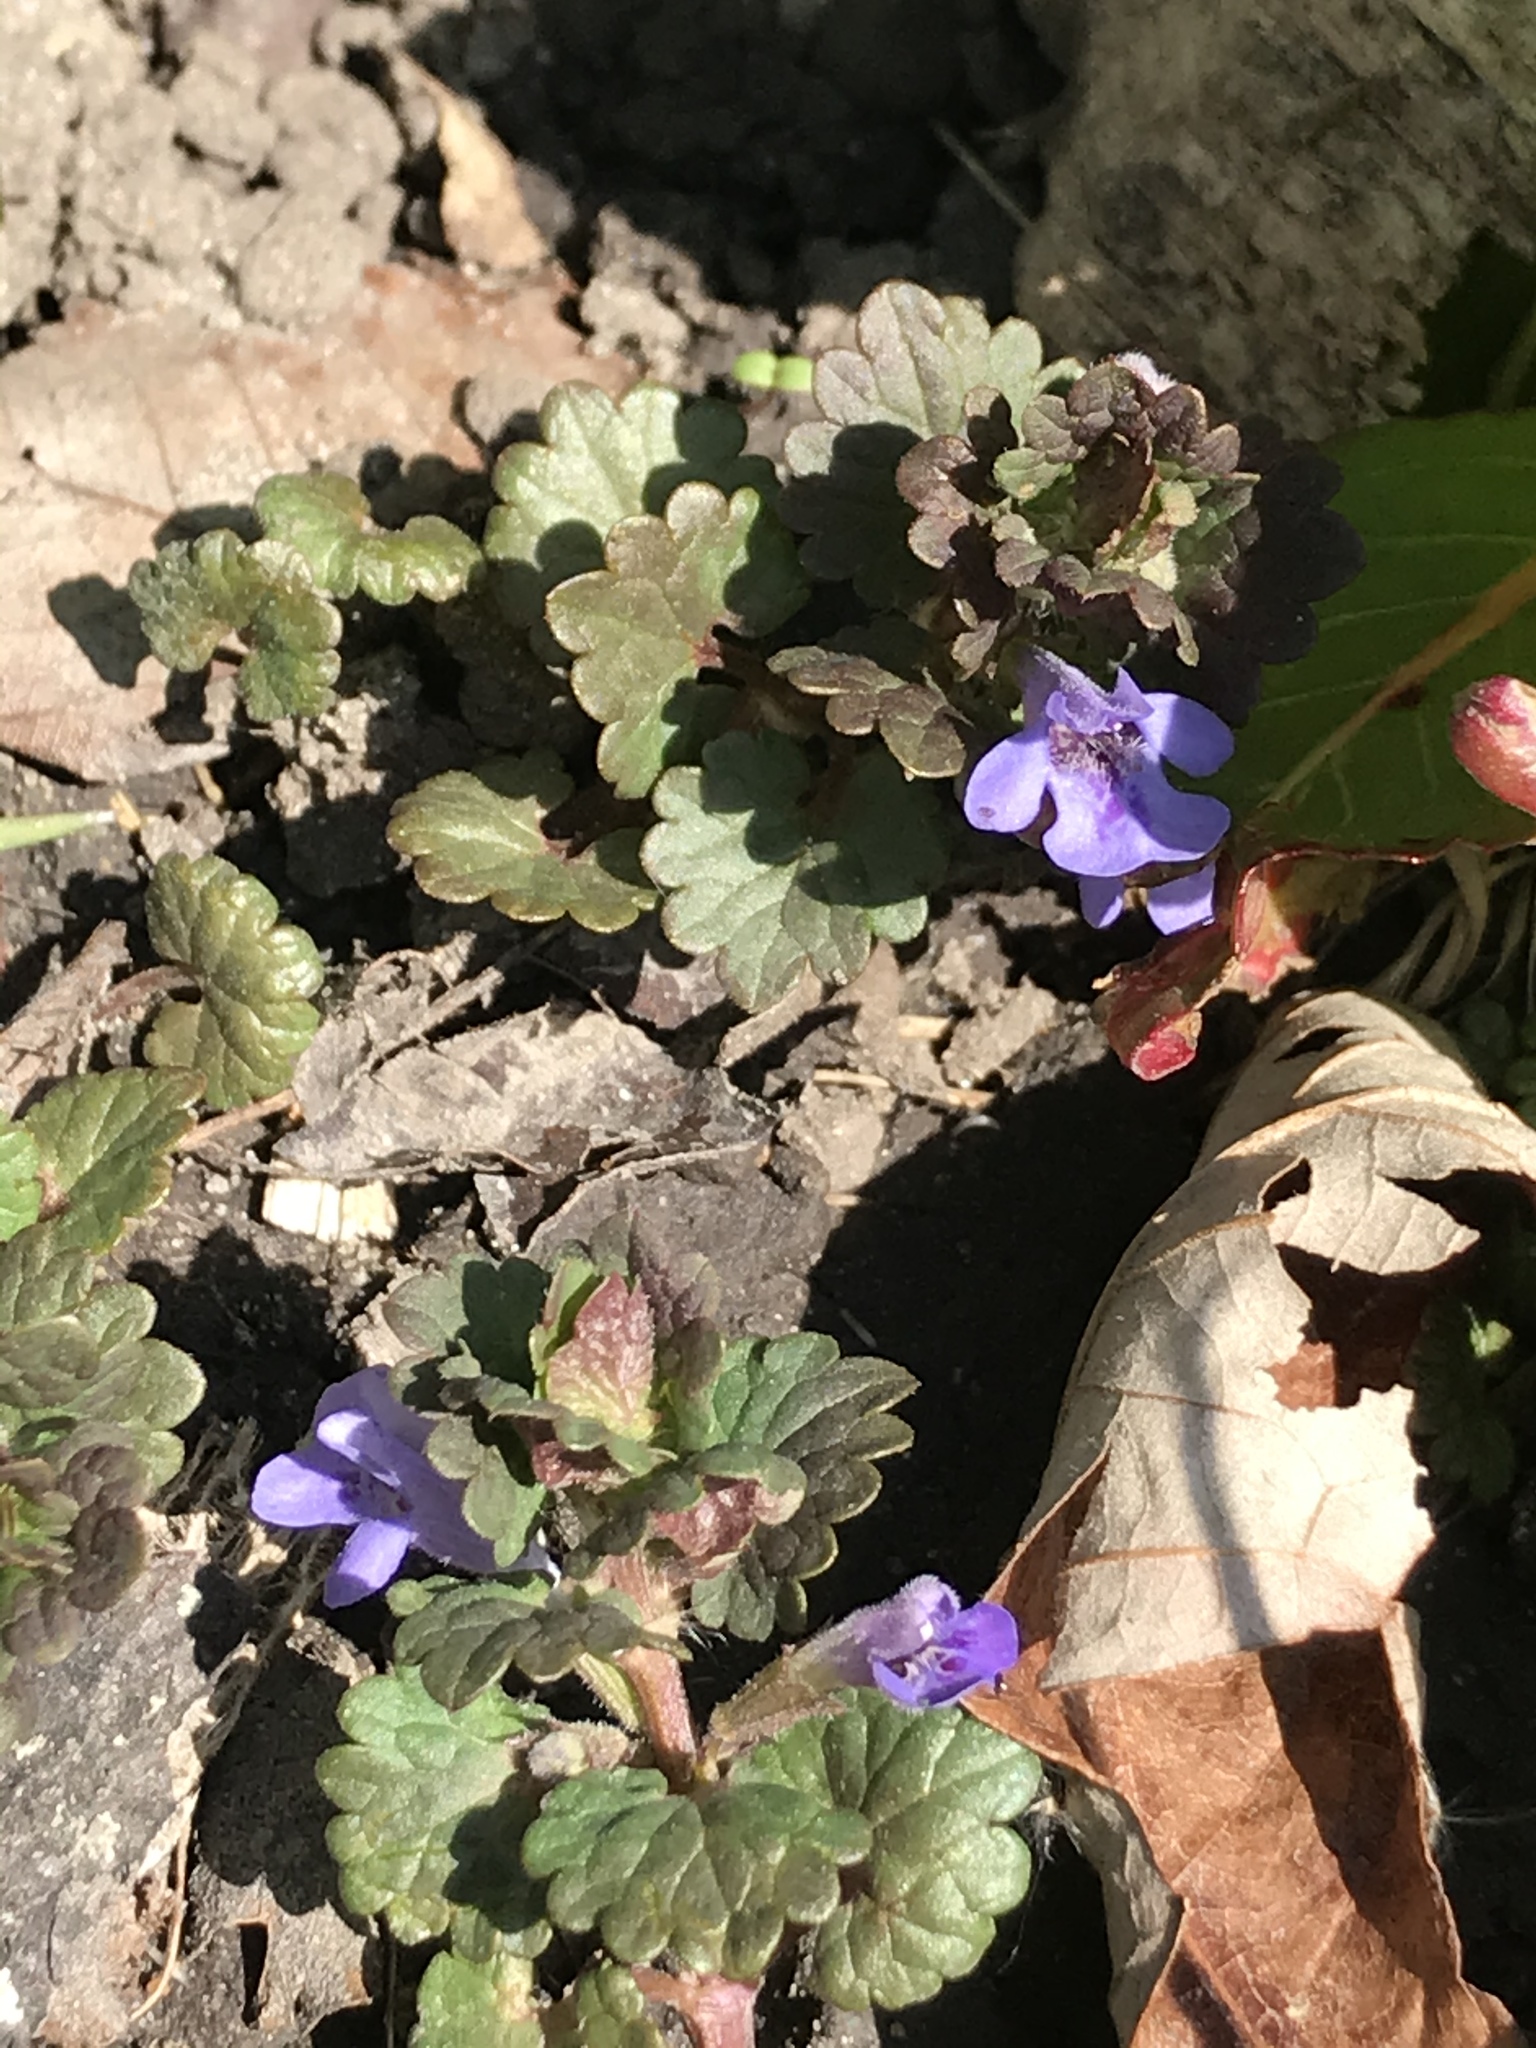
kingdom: Plantae
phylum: Tracheophyta
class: Magnoliopsida
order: Lamiales
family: Lamiaceae
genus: Glechoma
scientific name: Glechoma hederacea
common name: Ground ivy
